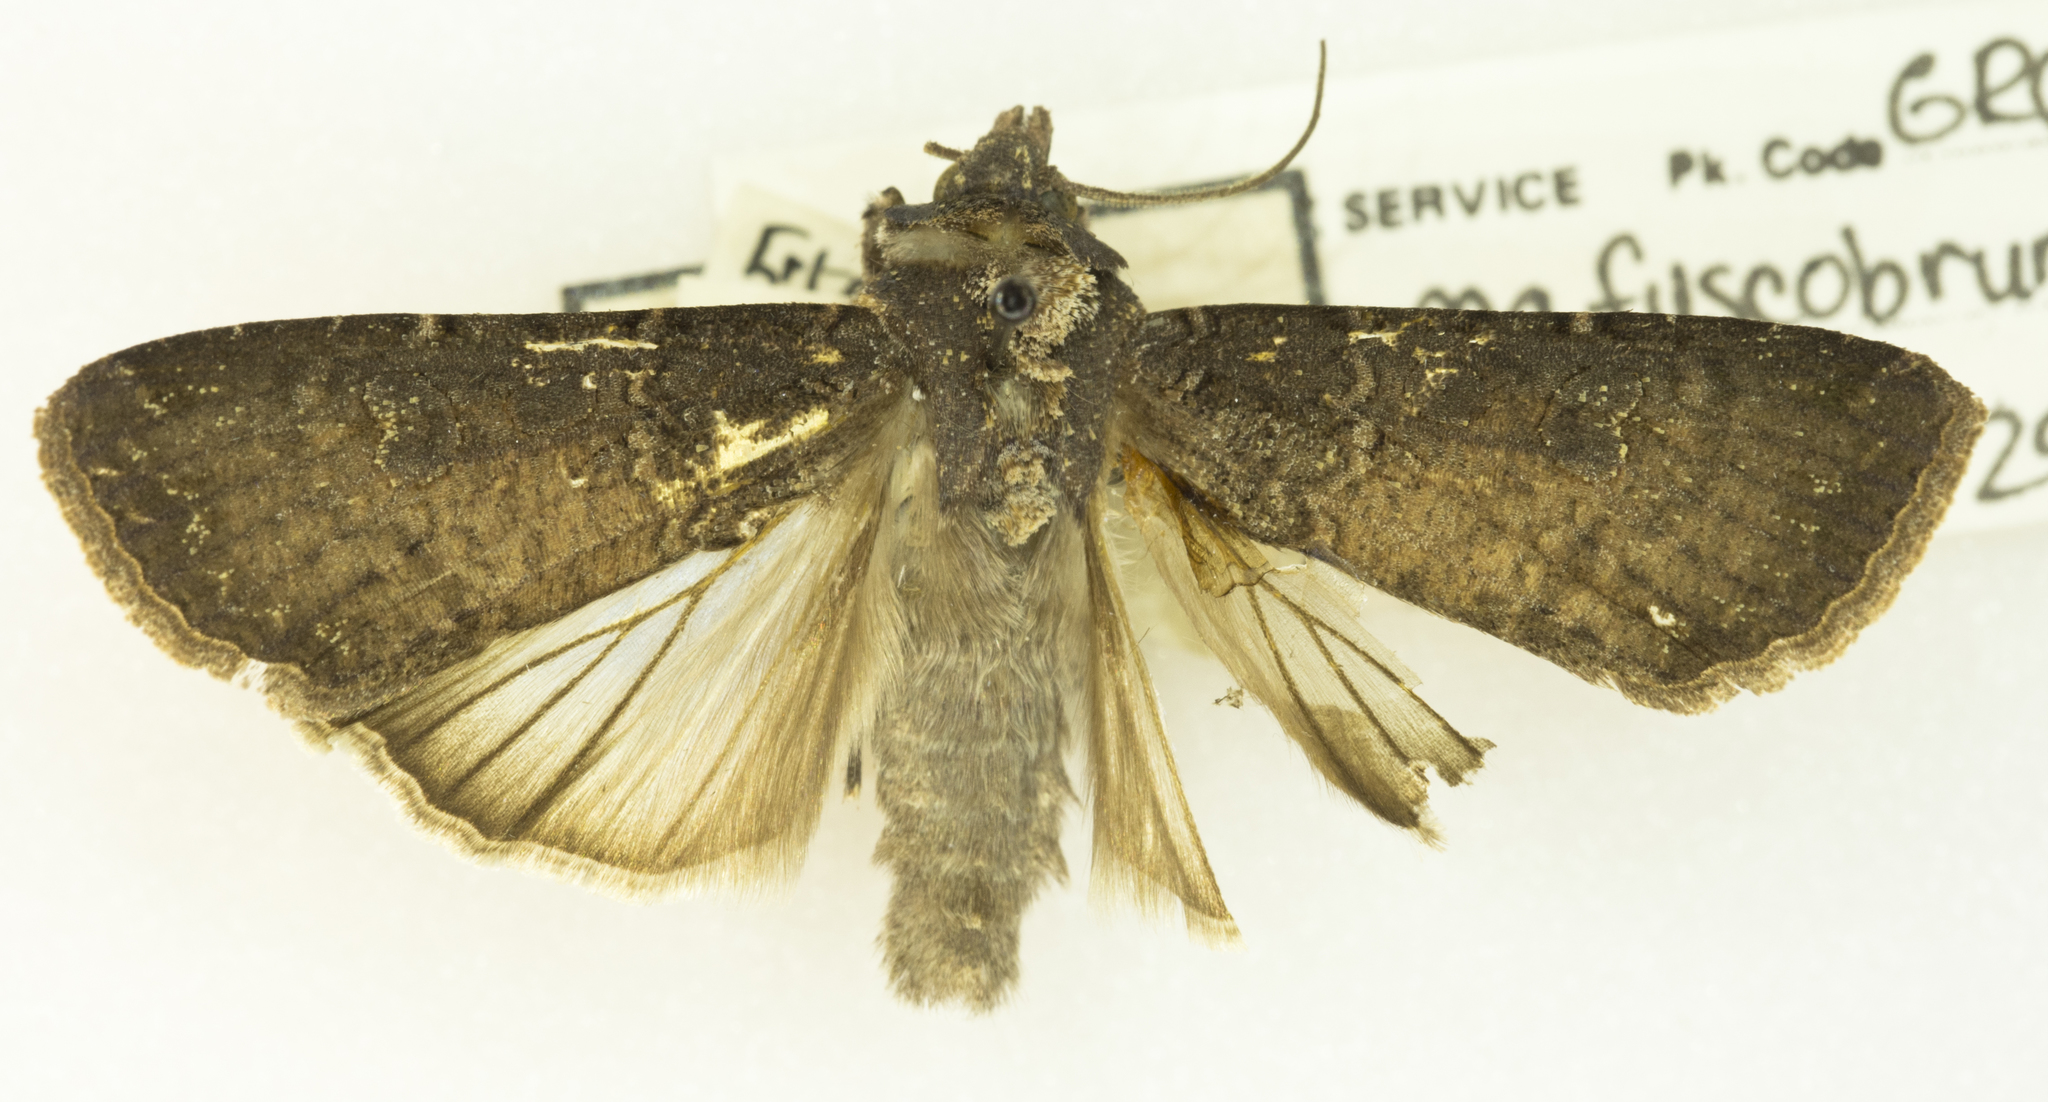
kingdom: Animalia
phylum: Arthropoda
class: Insecta
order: Lepidoptera
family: Noctuidae
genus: Peridroma
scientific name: Peridroma saucia
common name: Pearly underwing
